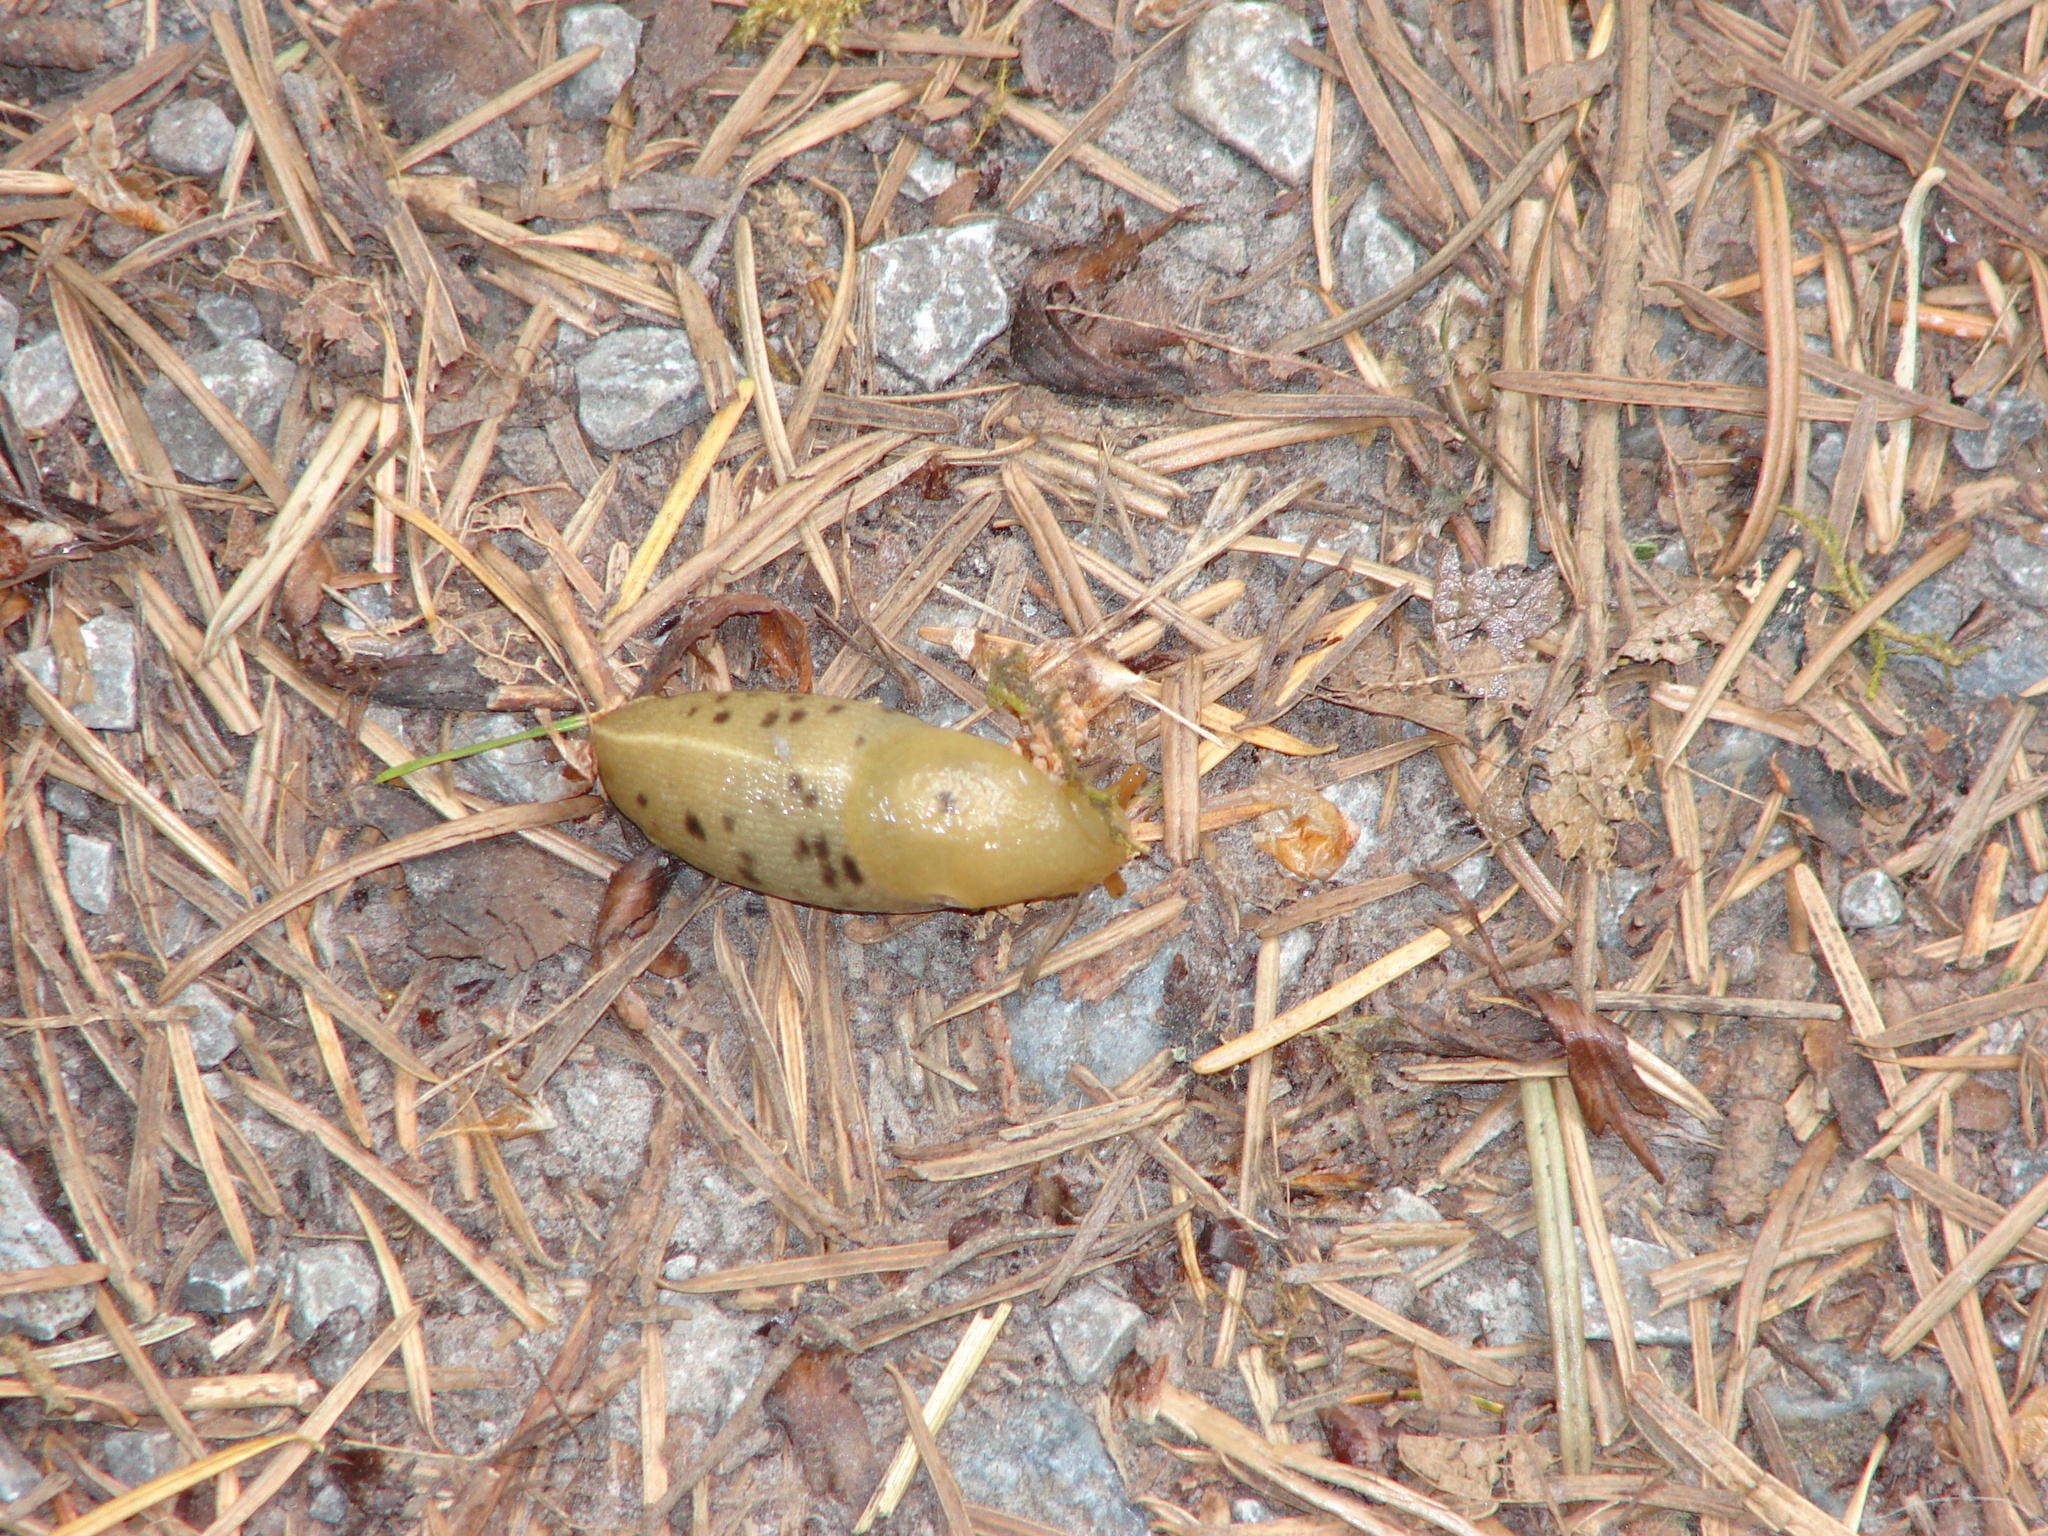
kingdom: Animalia
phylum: Mollusca
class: Gastropoda
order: Stylommatophora
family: Ariolimacidae
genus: Ariolimax
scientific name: Ariolimax columbianus
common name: Pacific banana slug
